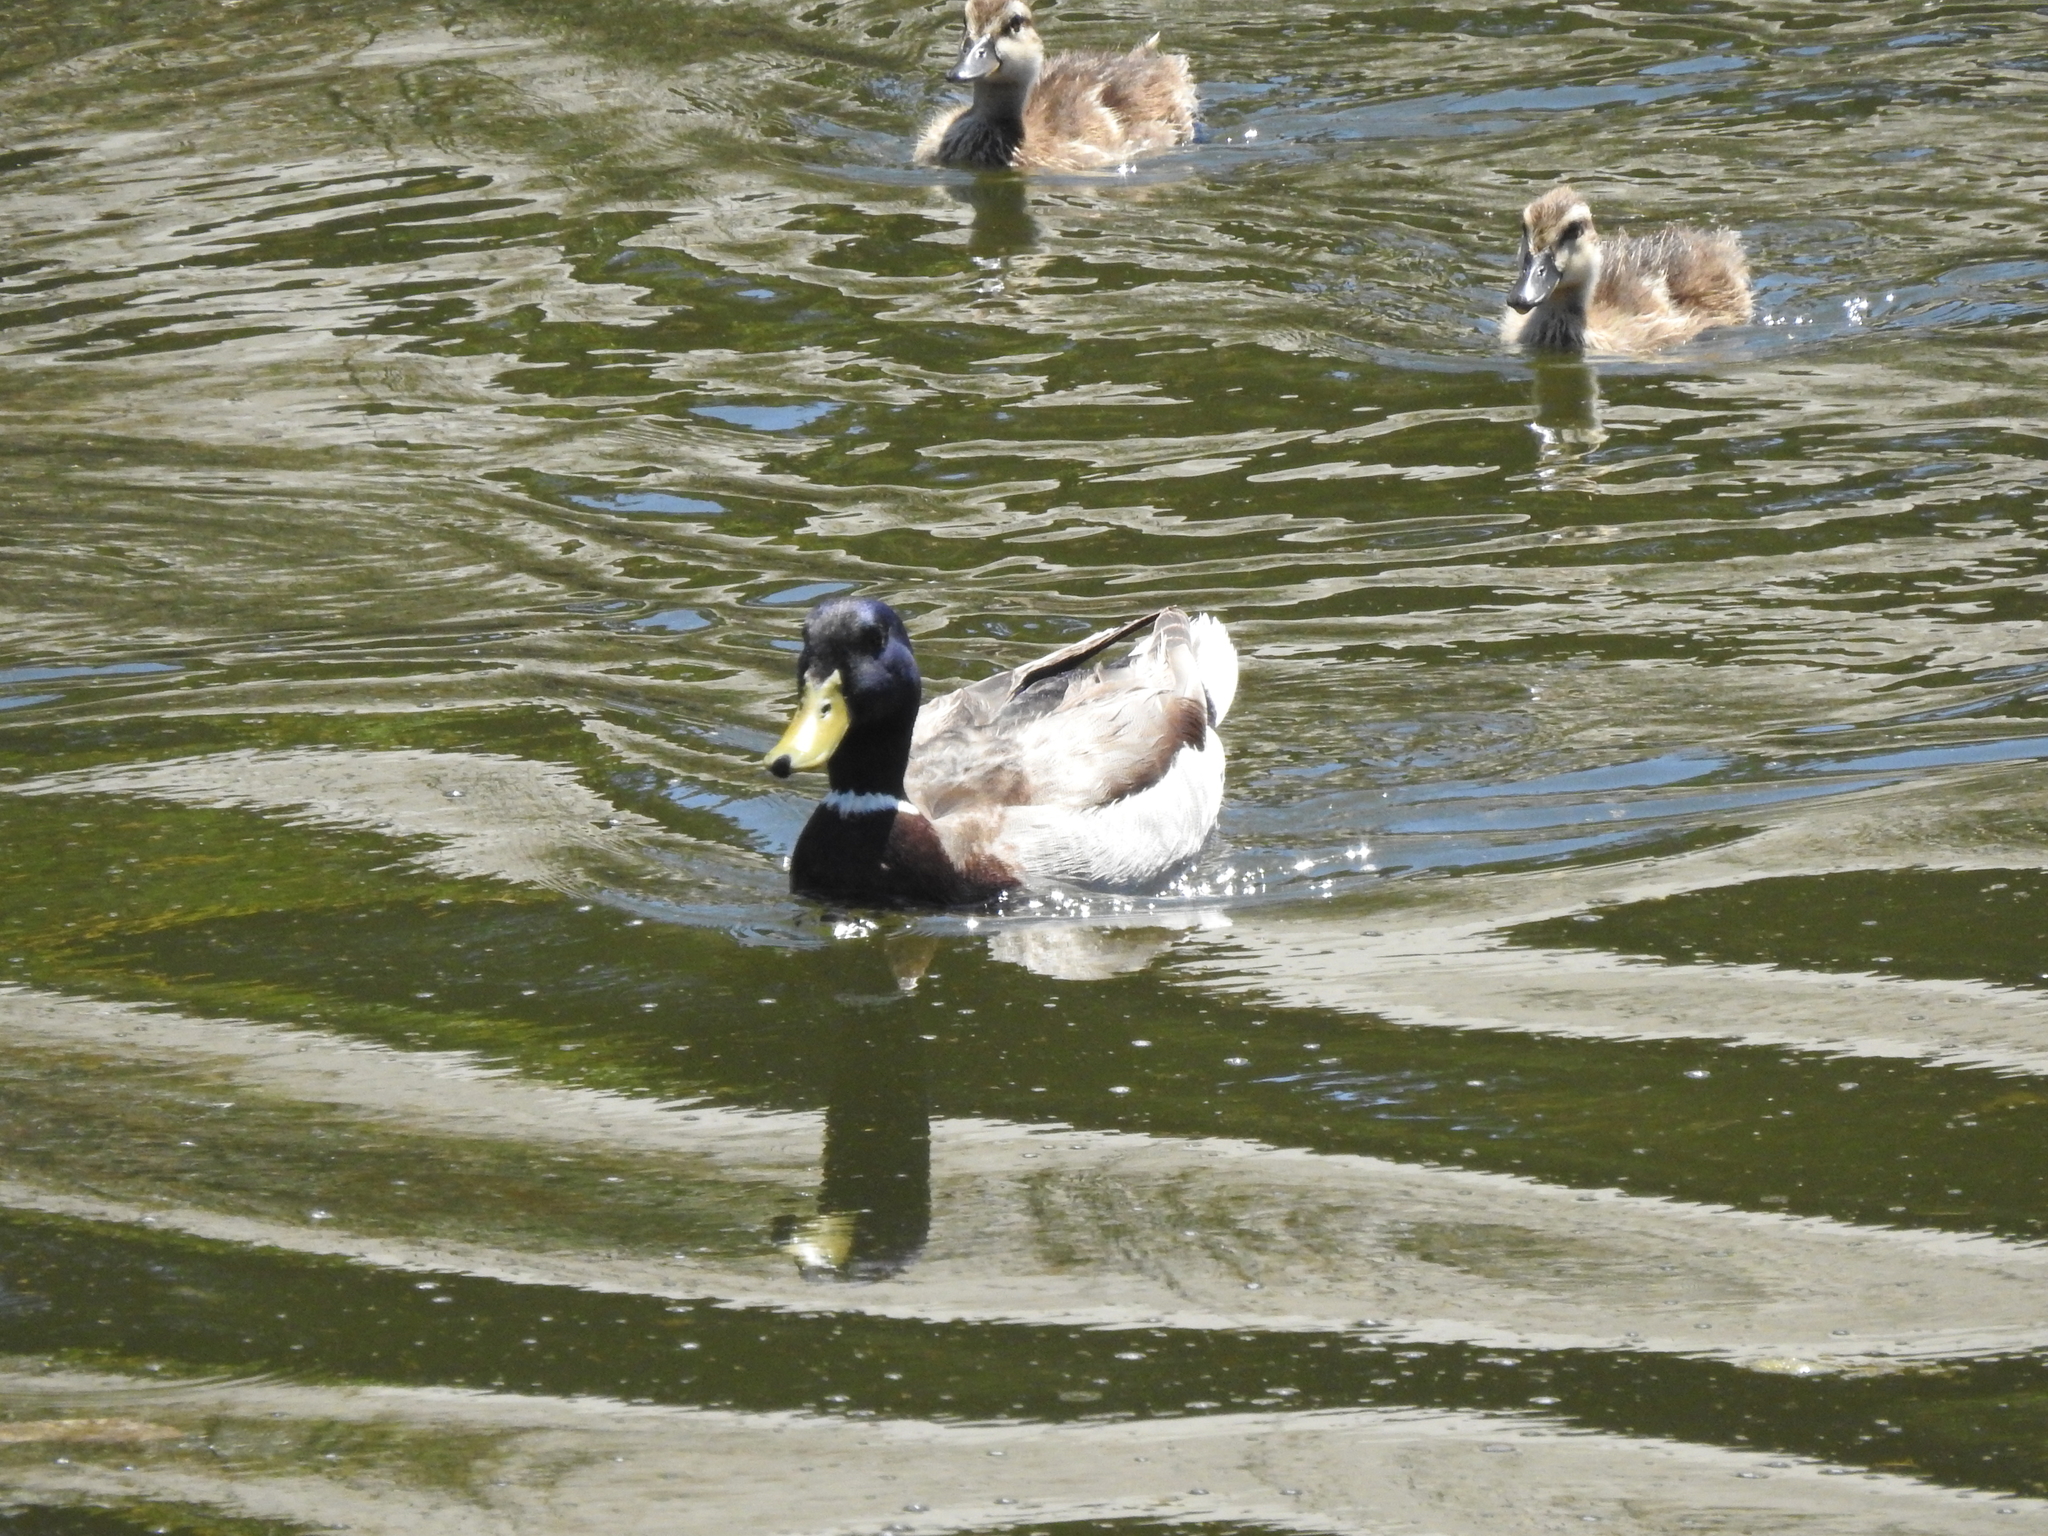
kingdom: Animalia
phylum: Chordata
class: Aves
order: Anseriformes
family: Anatidae
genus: Anas
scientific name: Anas platyrhynchos
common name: Mallard
